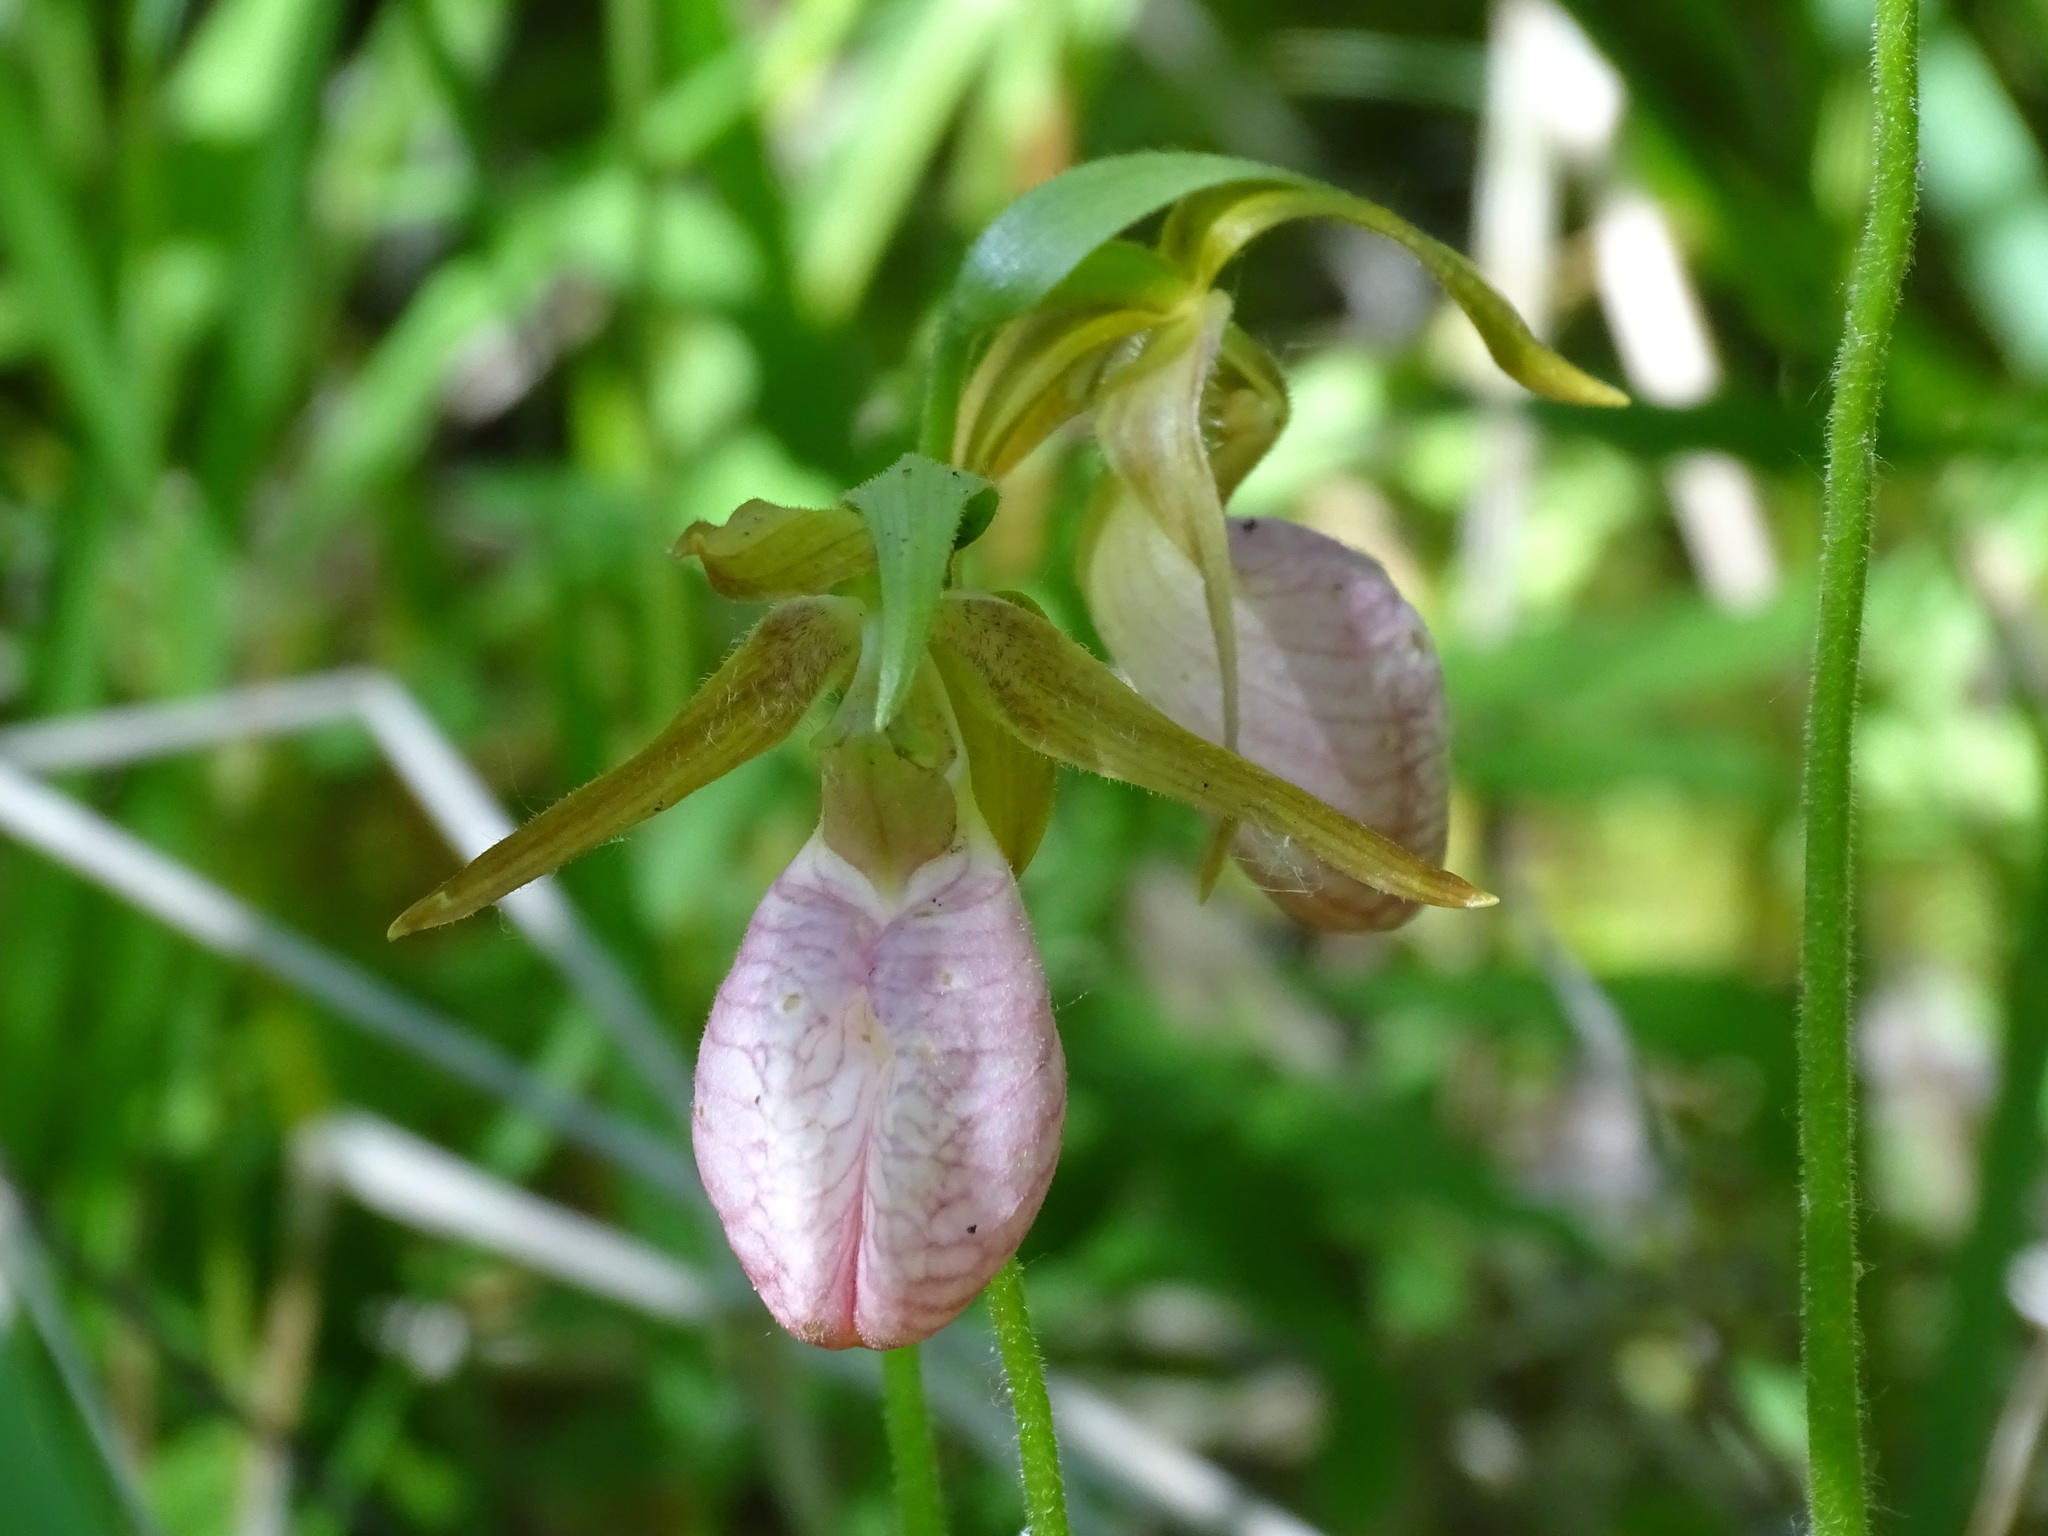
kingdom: Plantae
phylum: Tracheophyta
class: Liliopsida
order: Asparagales
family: Orchidaceae
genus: Cypripedium
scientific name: Cypripedium acaule
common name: Pink lady's-slipper
